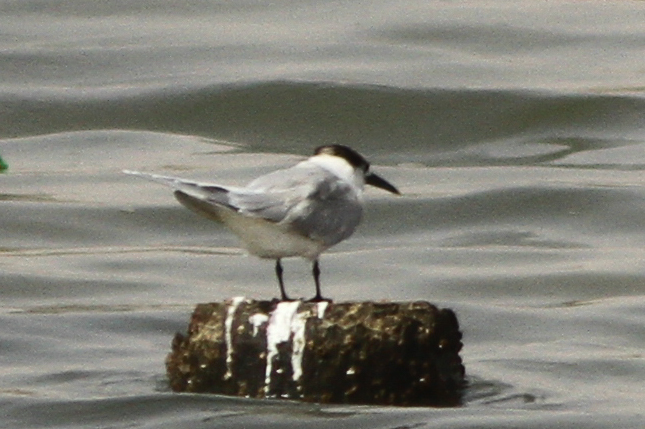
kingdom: Animalia
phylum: Chordata
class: Aves
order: Charadriiformes
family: Laridae
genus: Thalasseus
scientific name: Thalasseus sandvicensis
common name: Sandwich tern
